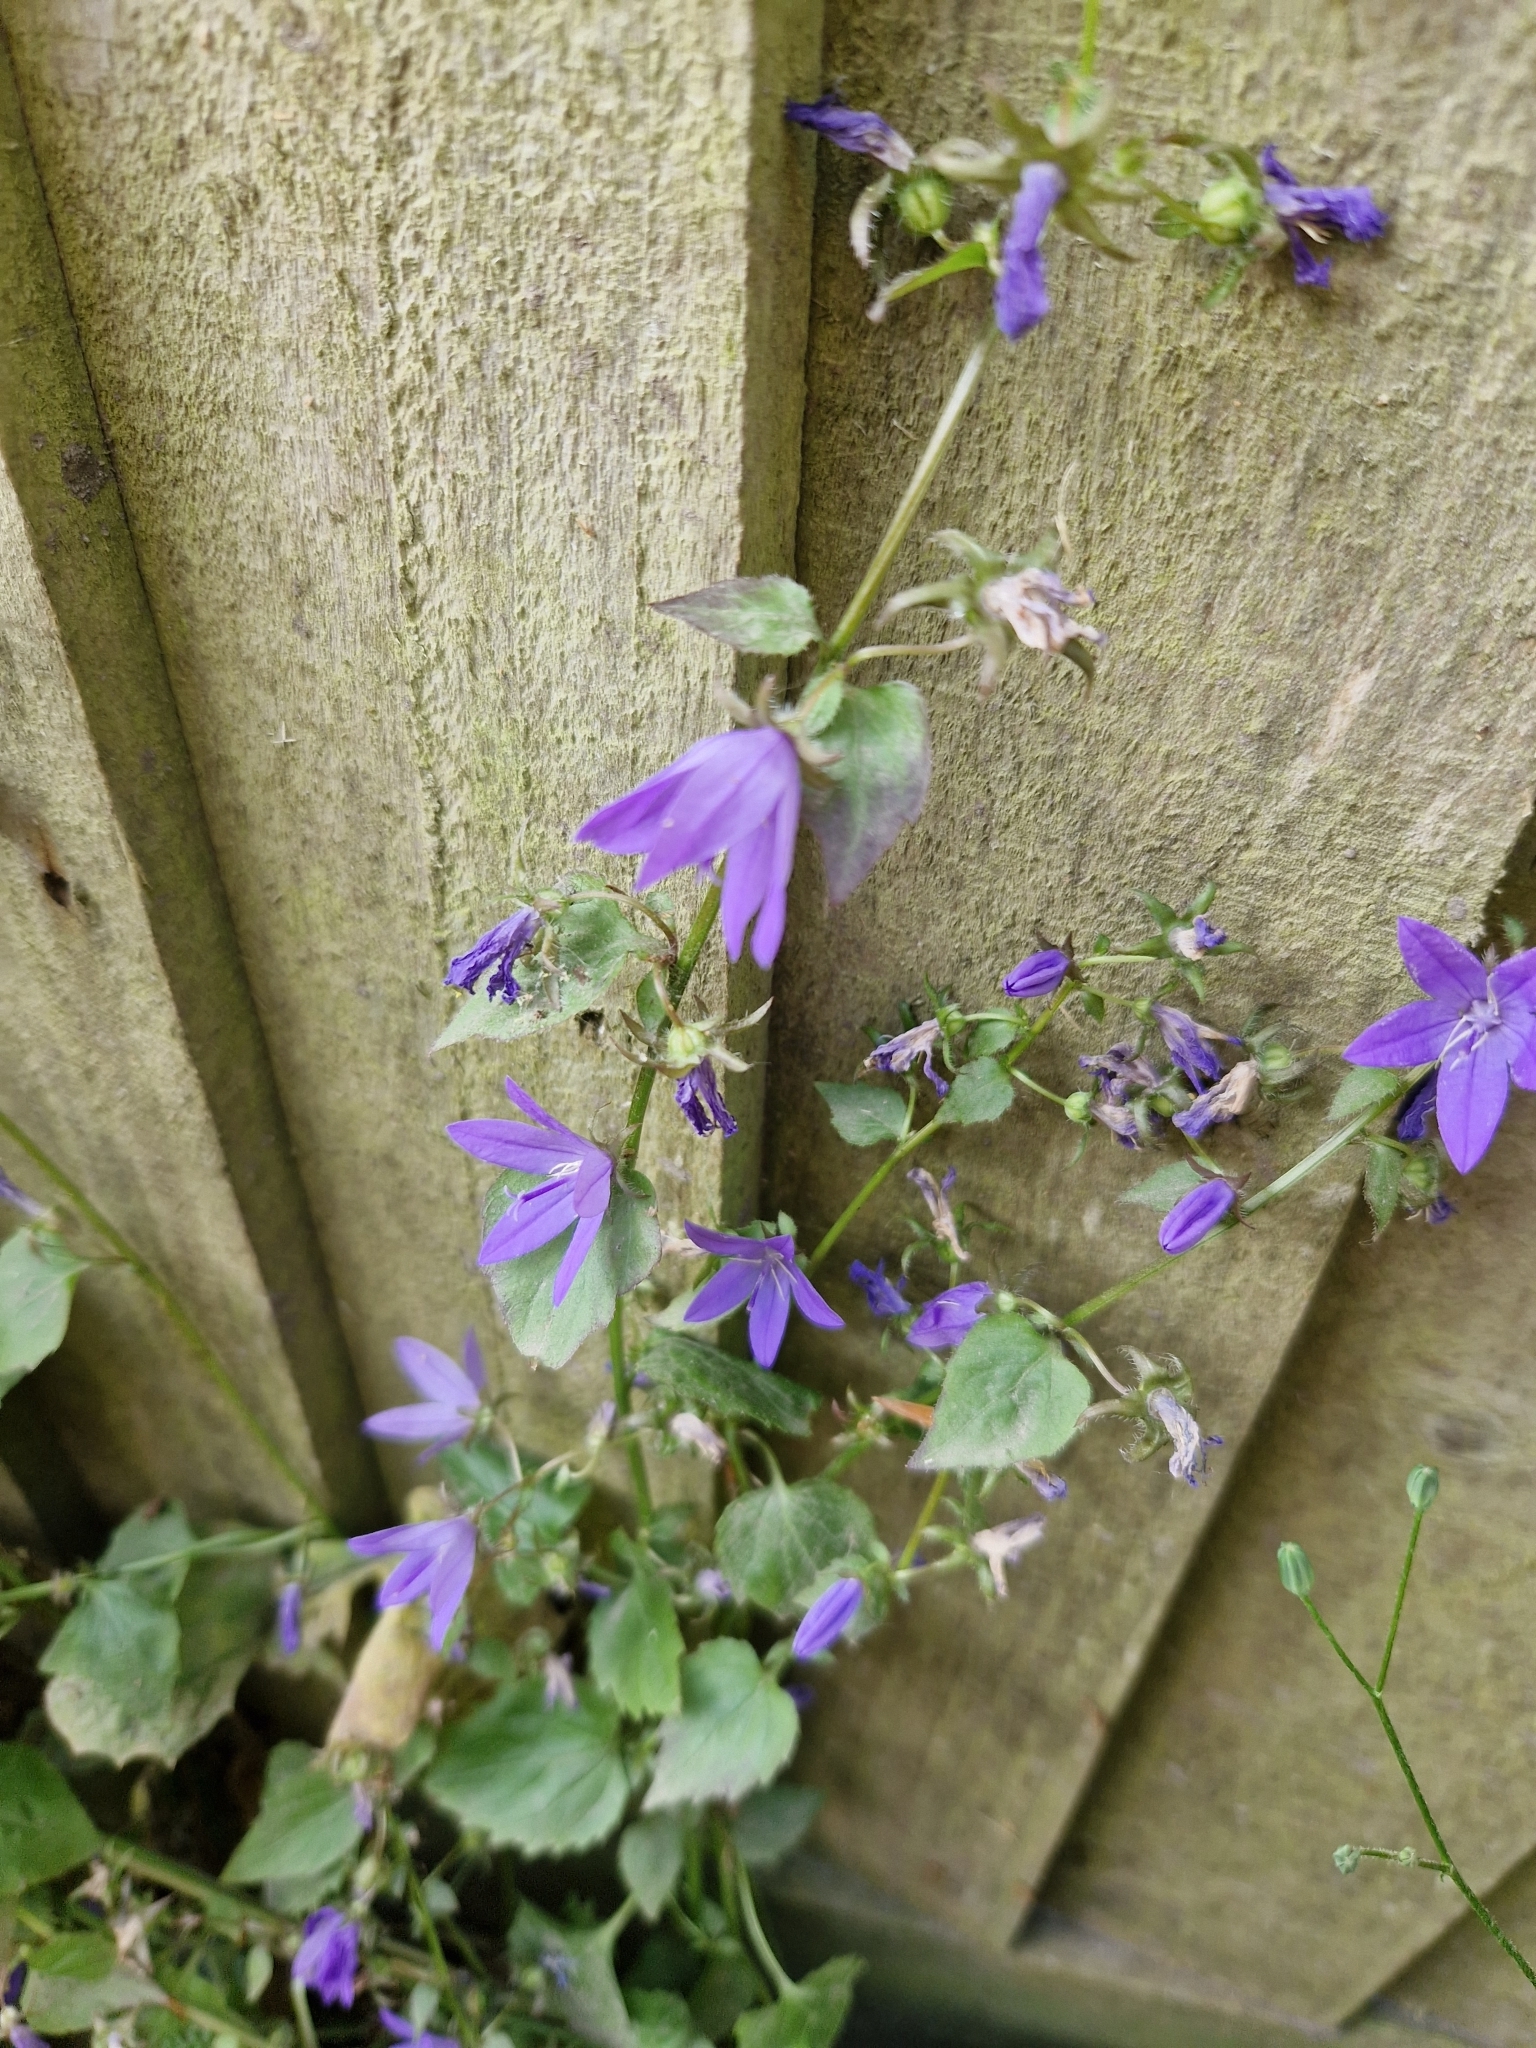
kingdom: Plantae
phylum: Tracheophyta
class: Magnoliopsida
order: Asterales
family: Campanulaceae
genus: Campanula
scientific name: Campanula poscharskyana
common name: Trailing bellflower
